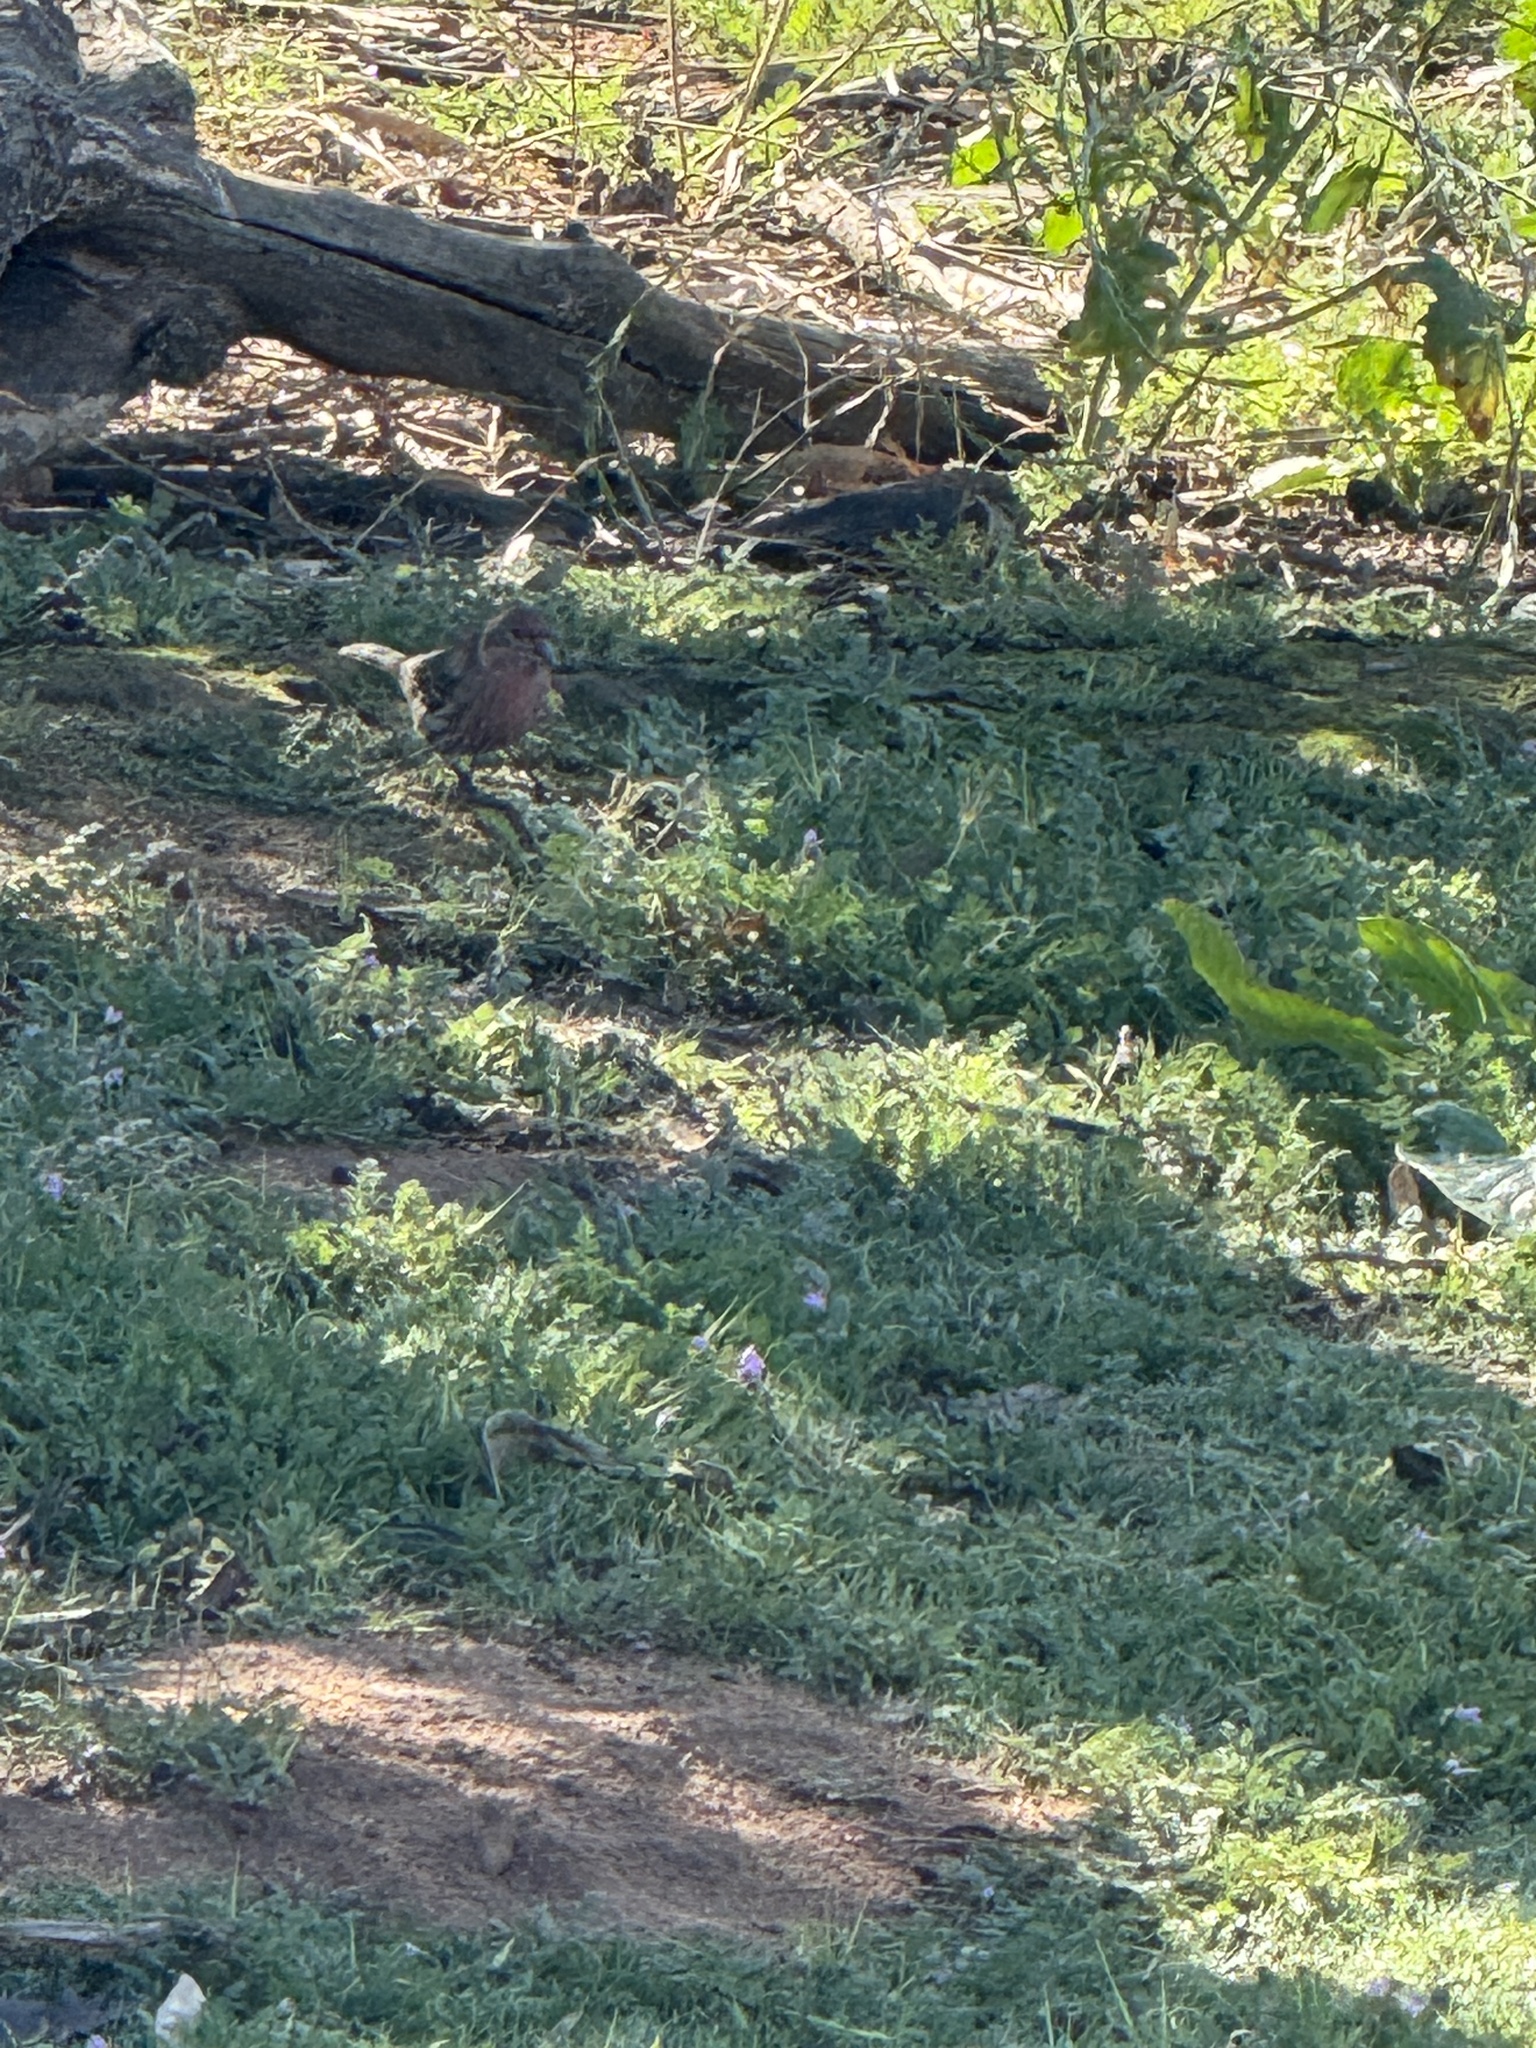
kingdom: Animalia
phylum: Chordata
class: Aves
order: Passeriformes
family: Fringillidae
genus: Haemorhous
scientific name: Haemorhous mexicanus
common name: House finch
